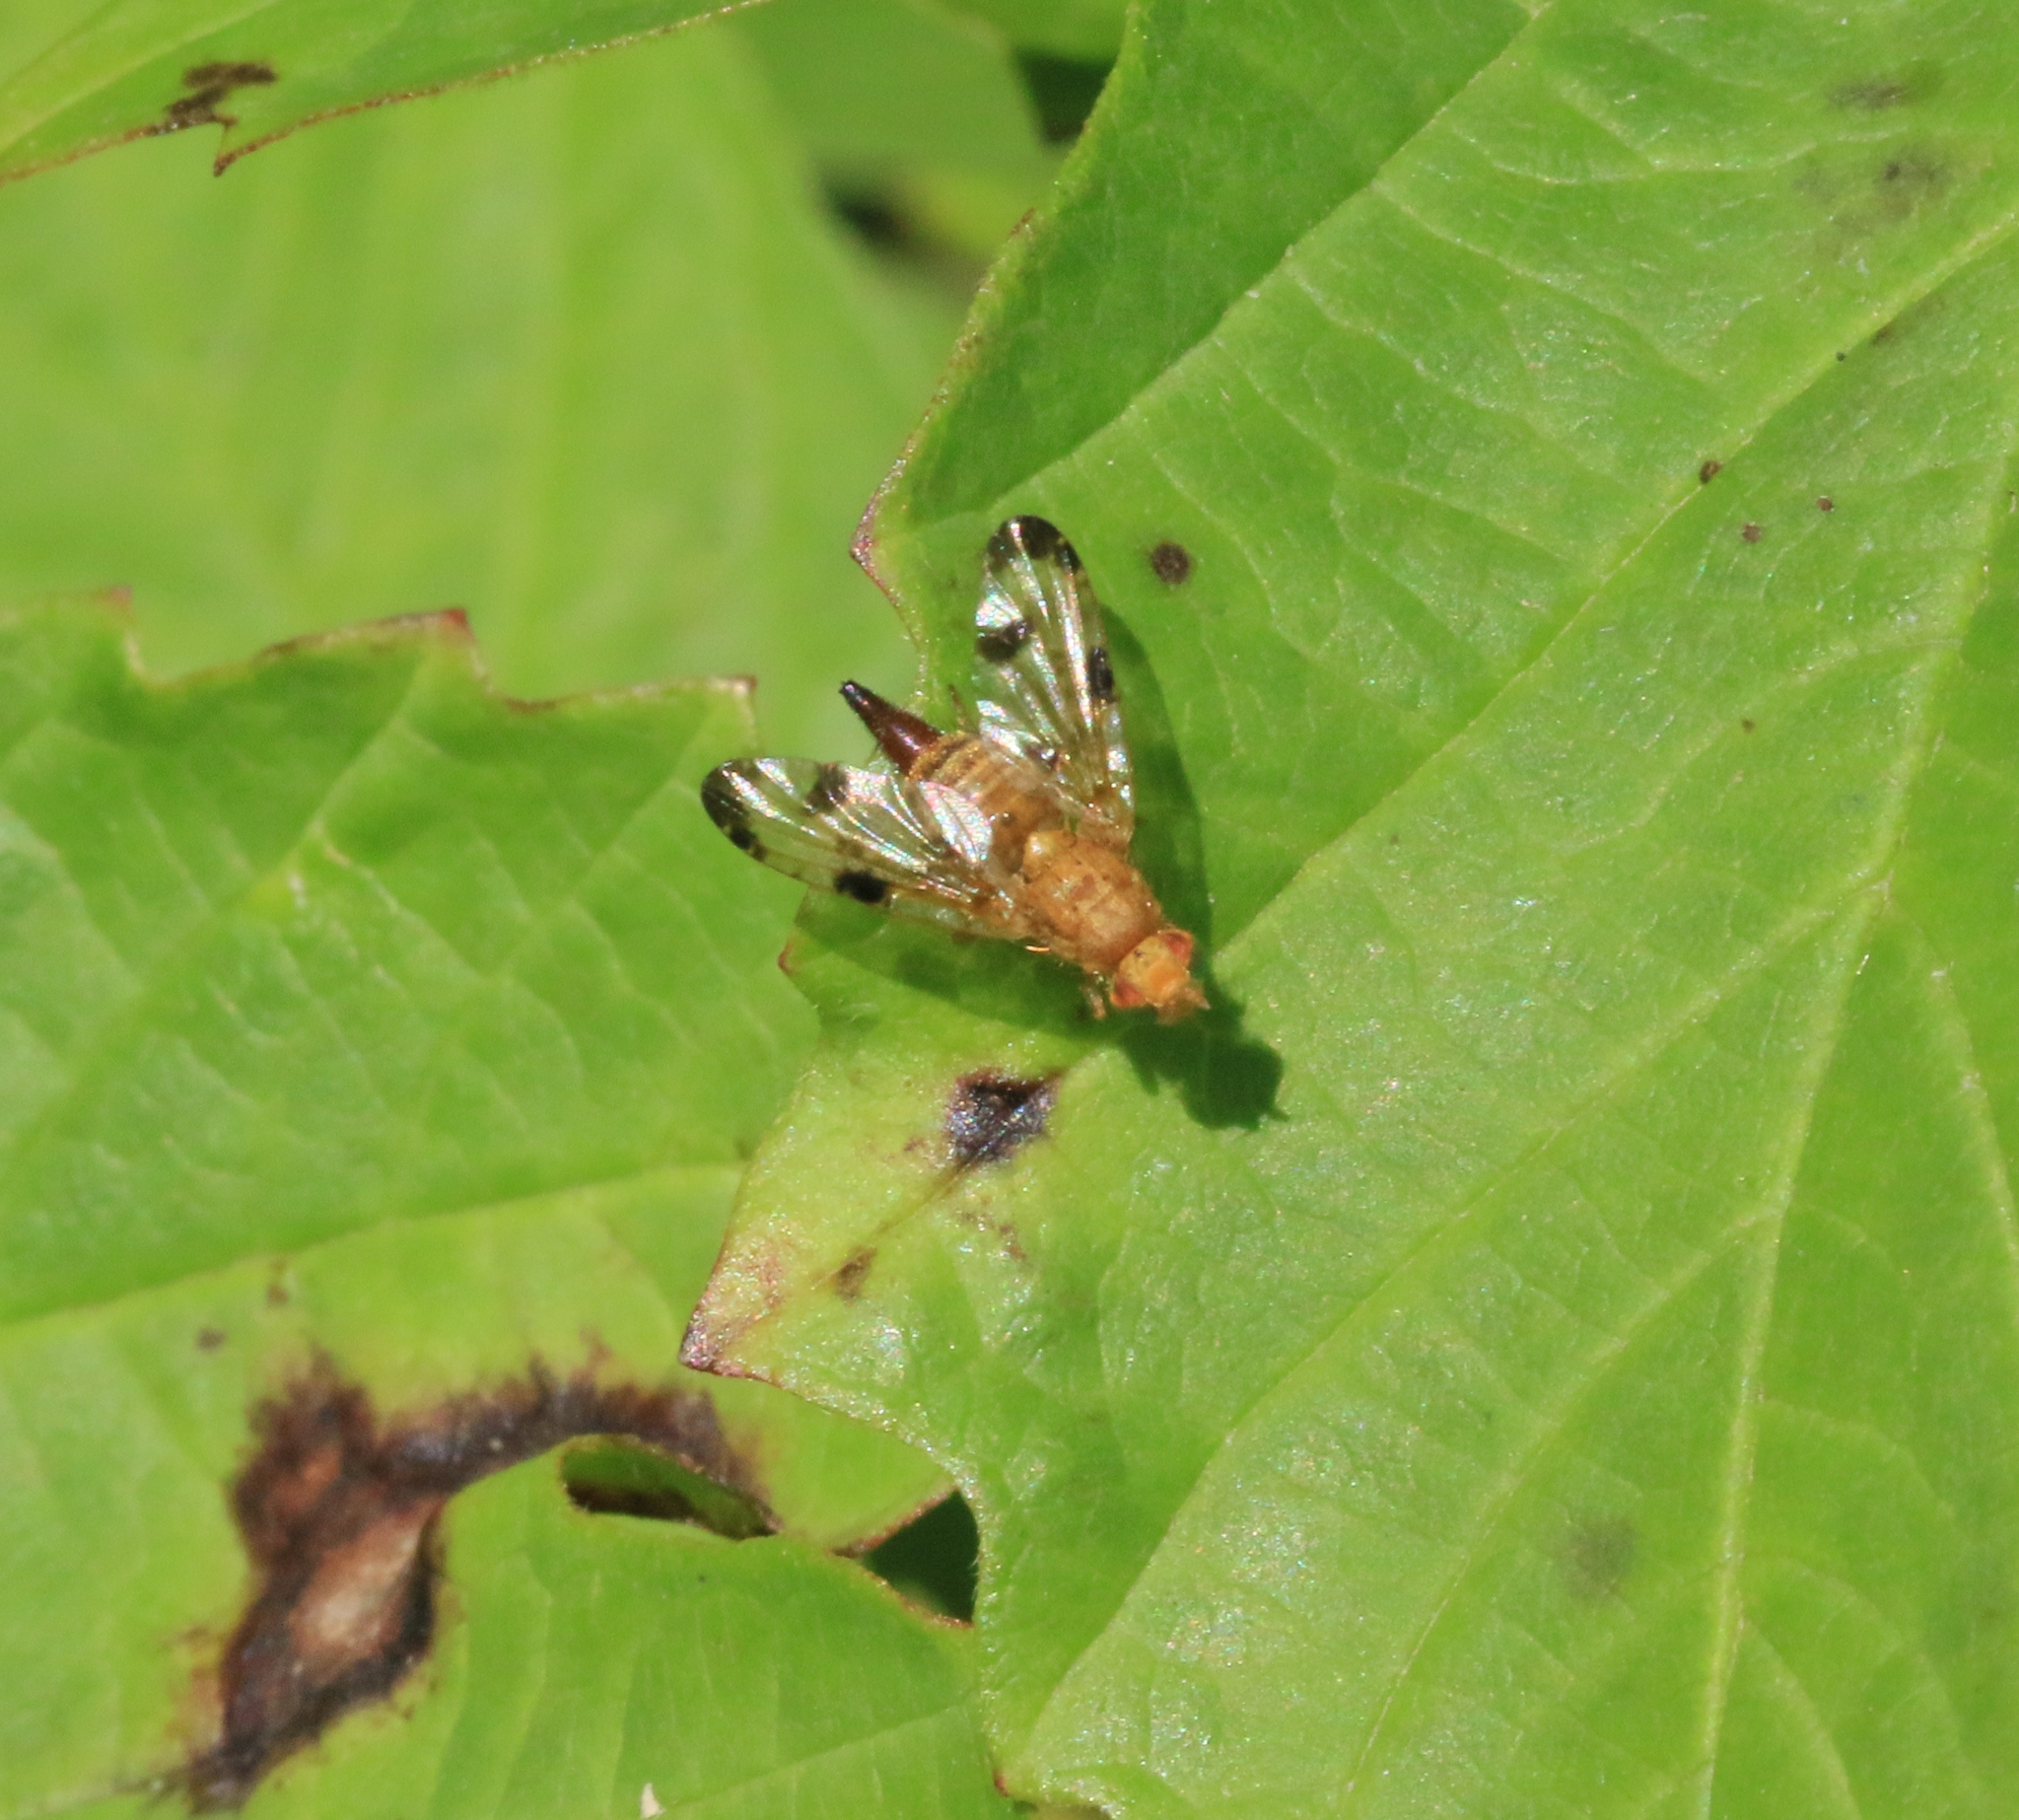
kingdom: Animalia
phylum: Arthropoda
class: Insecta
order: Diptera
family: Tephritidae
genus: Xyphosia
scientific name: Xyphosia miliaria
